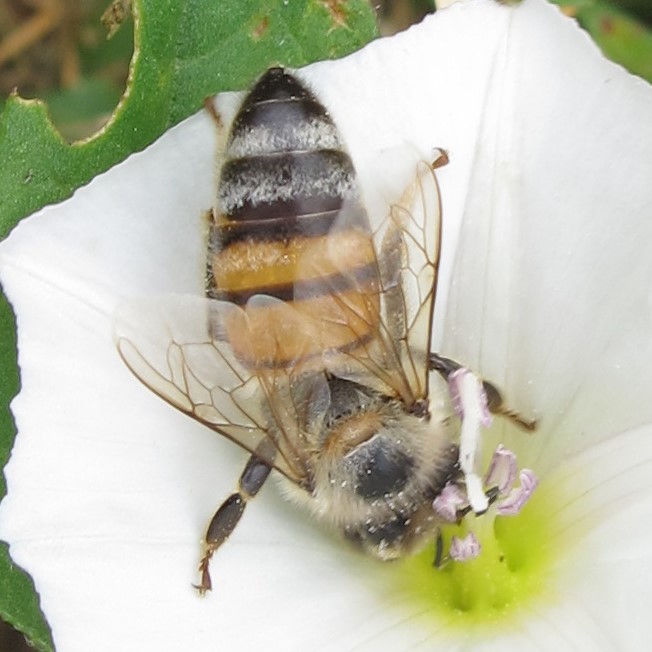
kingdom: Animalia
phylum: Arthropoda
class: Insecta
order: Hymenoptera
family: Apidae
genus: Apis
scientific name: Apis mellifera
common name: Honey bee
